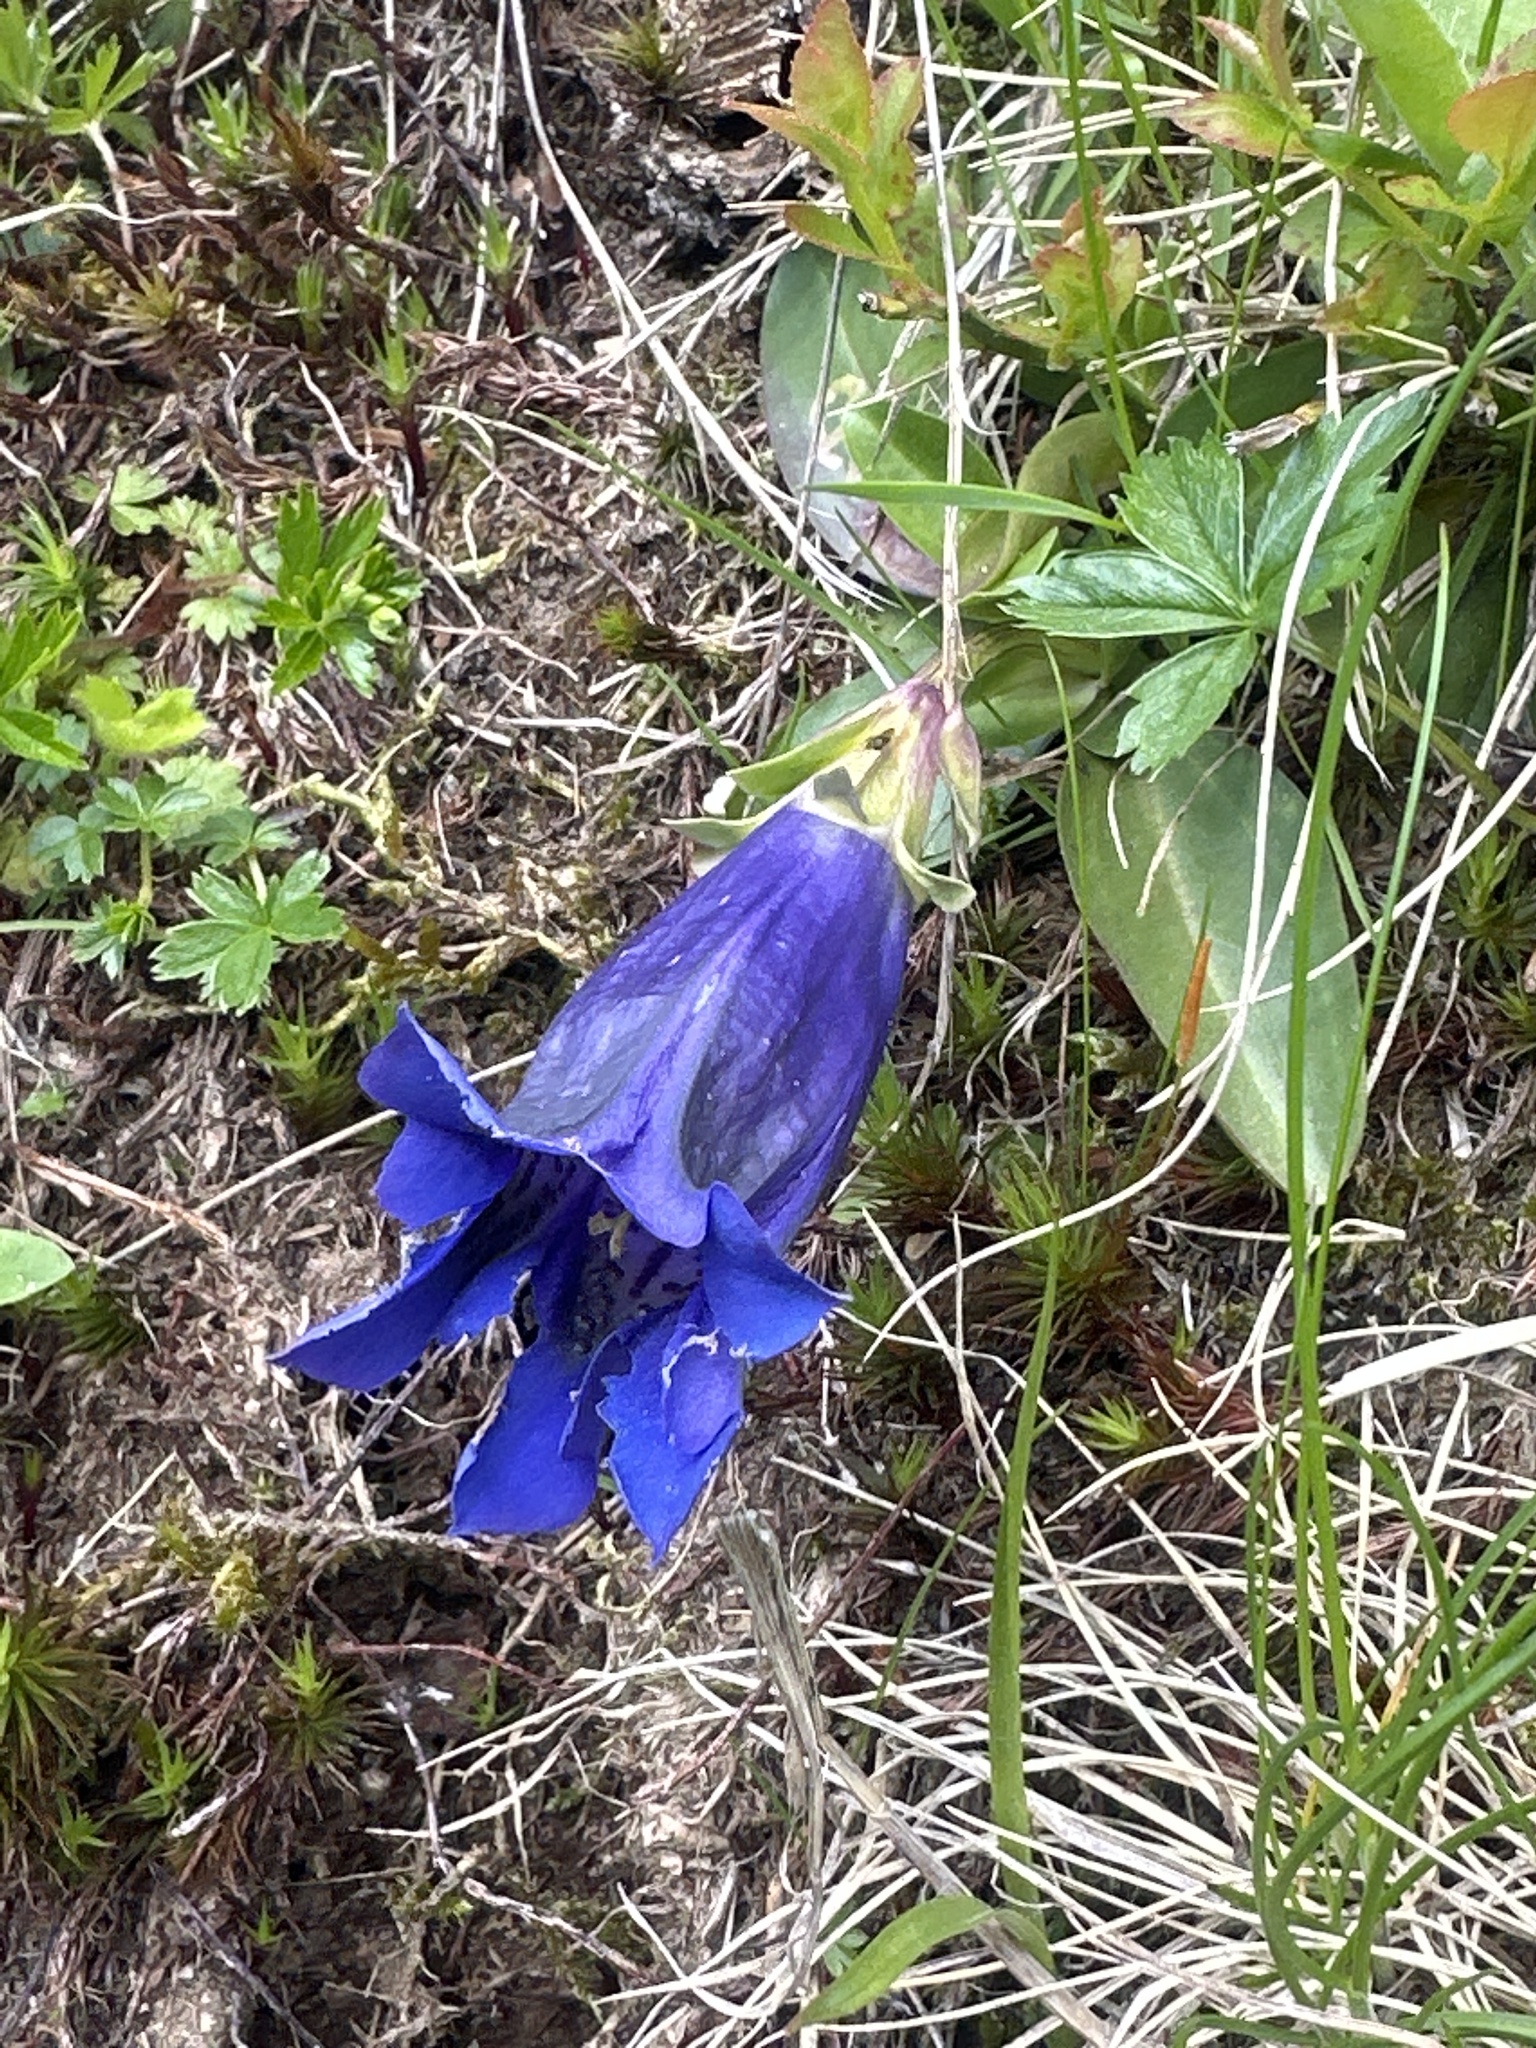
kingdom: Plantae
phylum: Tracheophyta
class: Magnoliopsida
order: Gentianales
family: Gentianaceae
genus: Gentiana
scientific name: Gentiana acaulis
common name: Trumpet gentian
